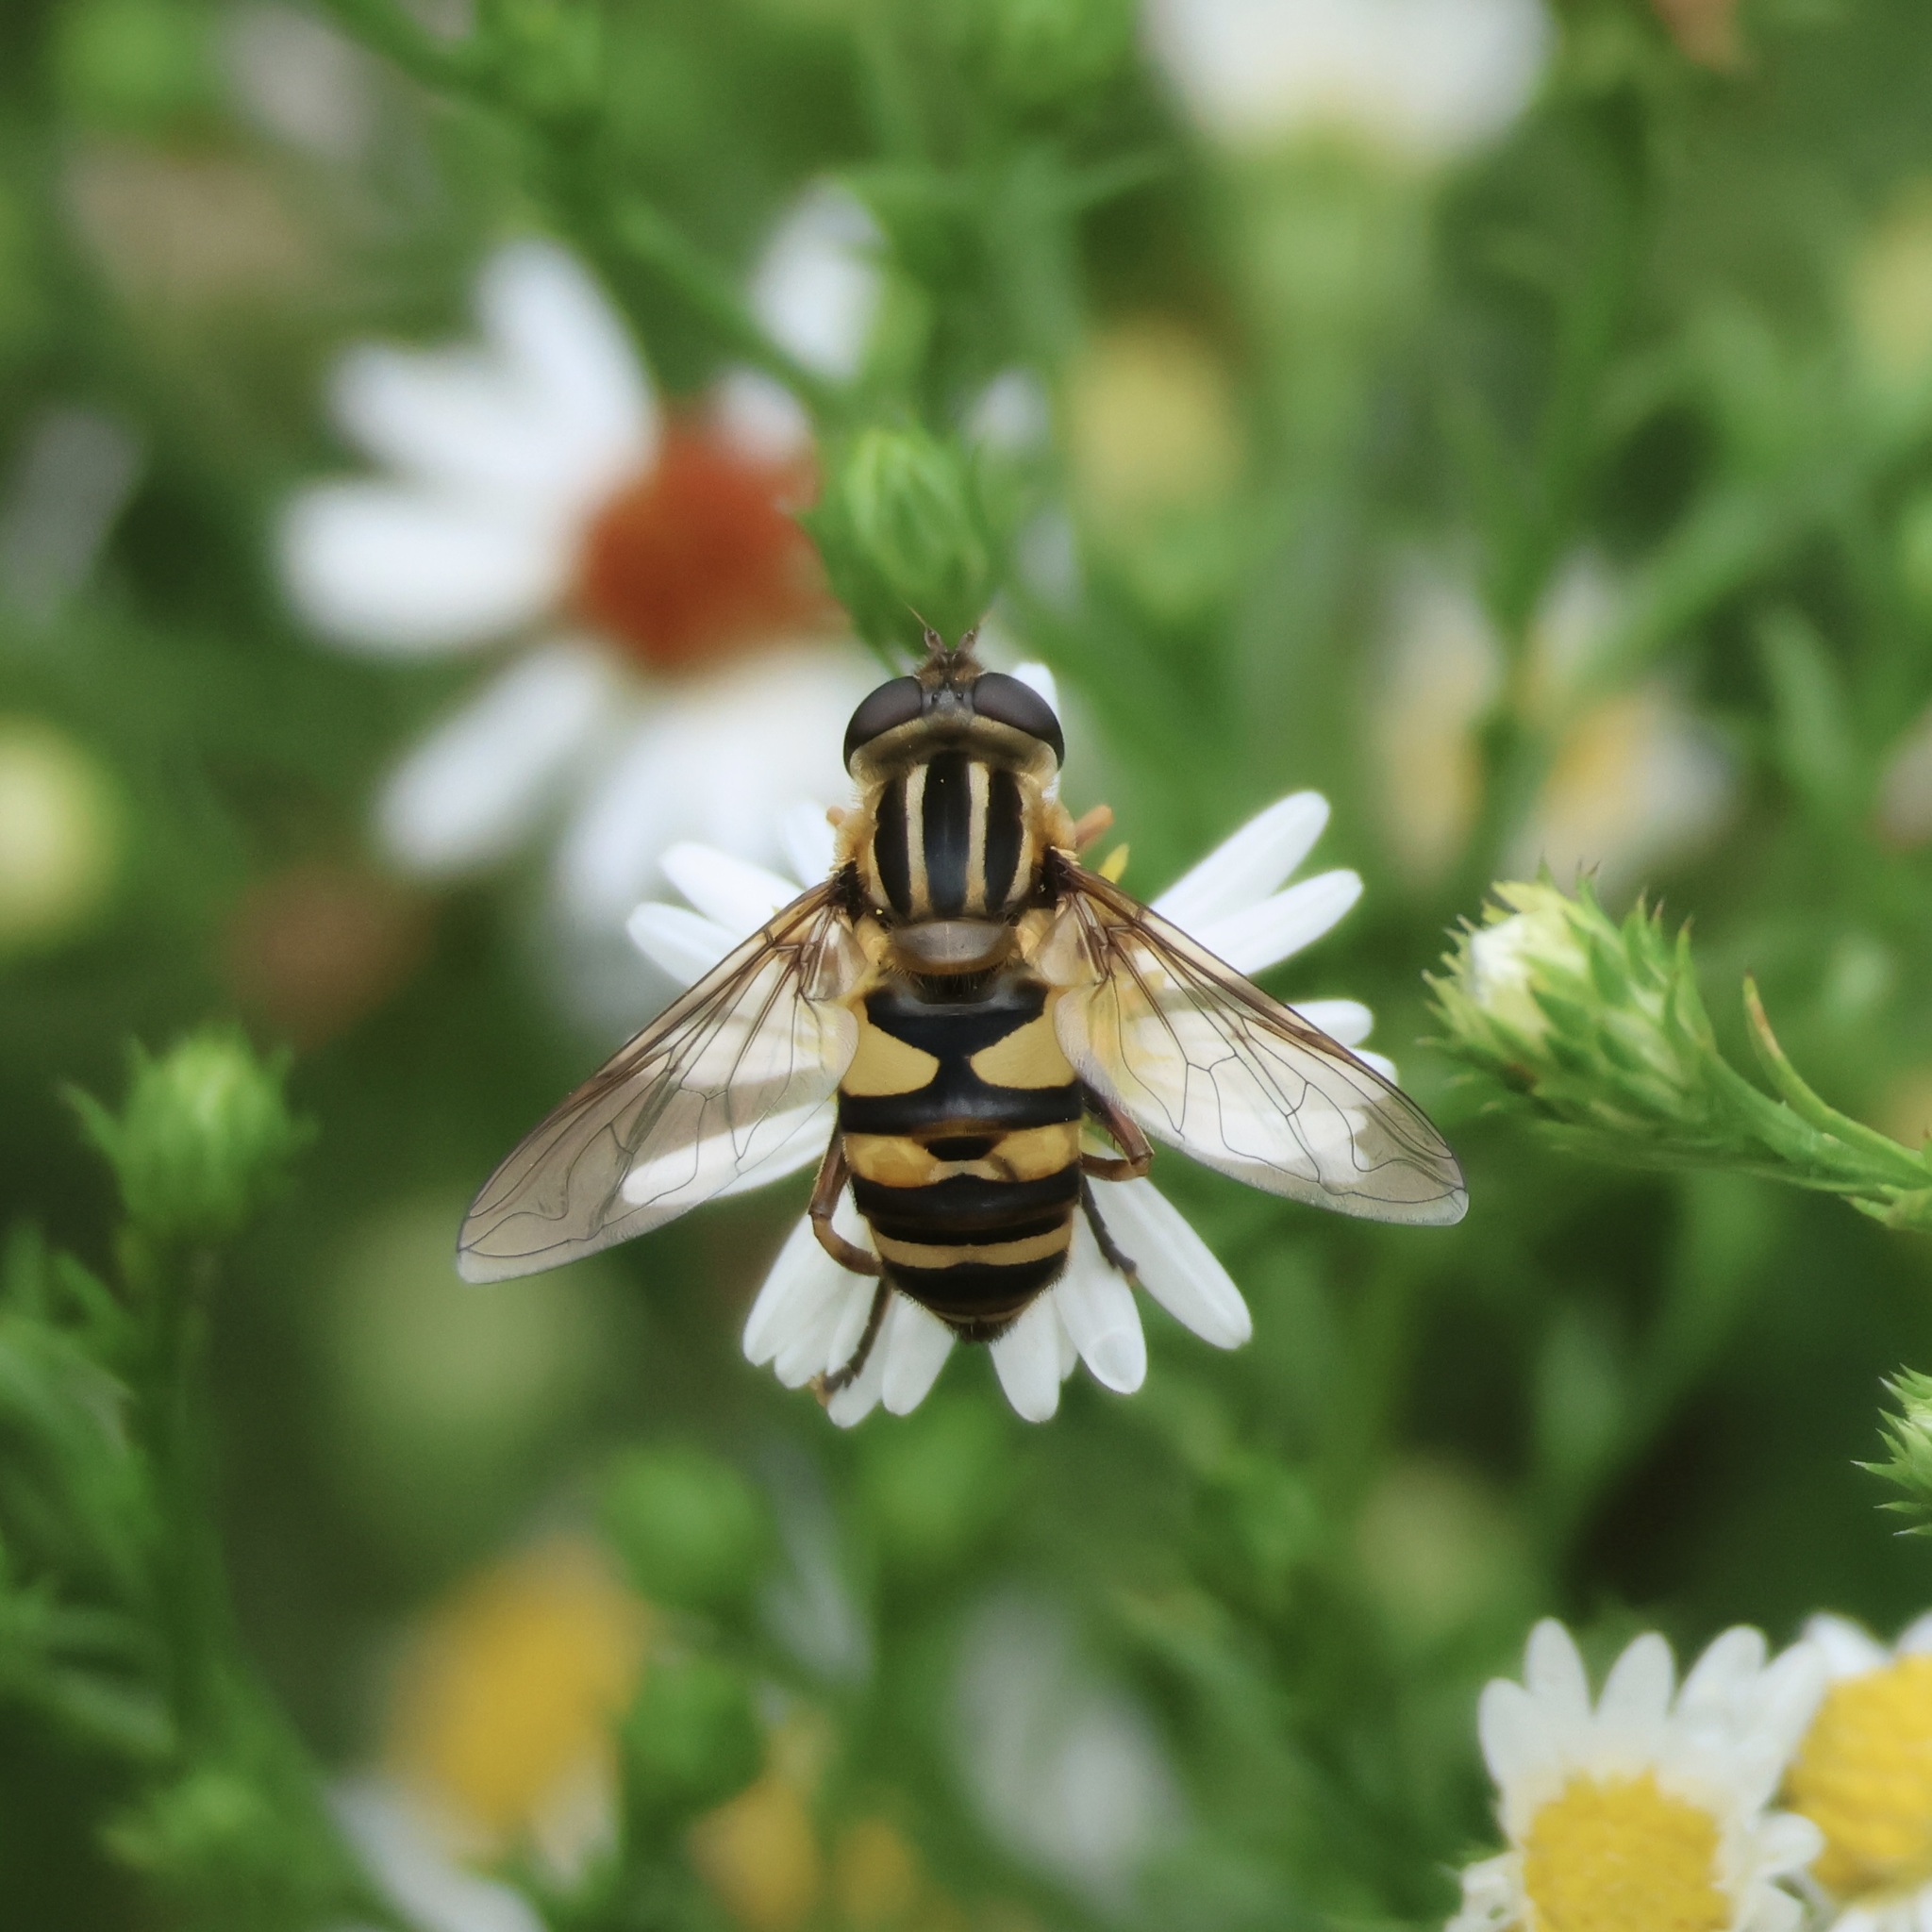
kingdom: Animalia
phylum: Arthropoda
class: Insecta
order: Diptera
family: Syrphidae
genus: Helophilus
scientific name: Helophilus fasciatus
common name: Narrow-headed marsh fly
